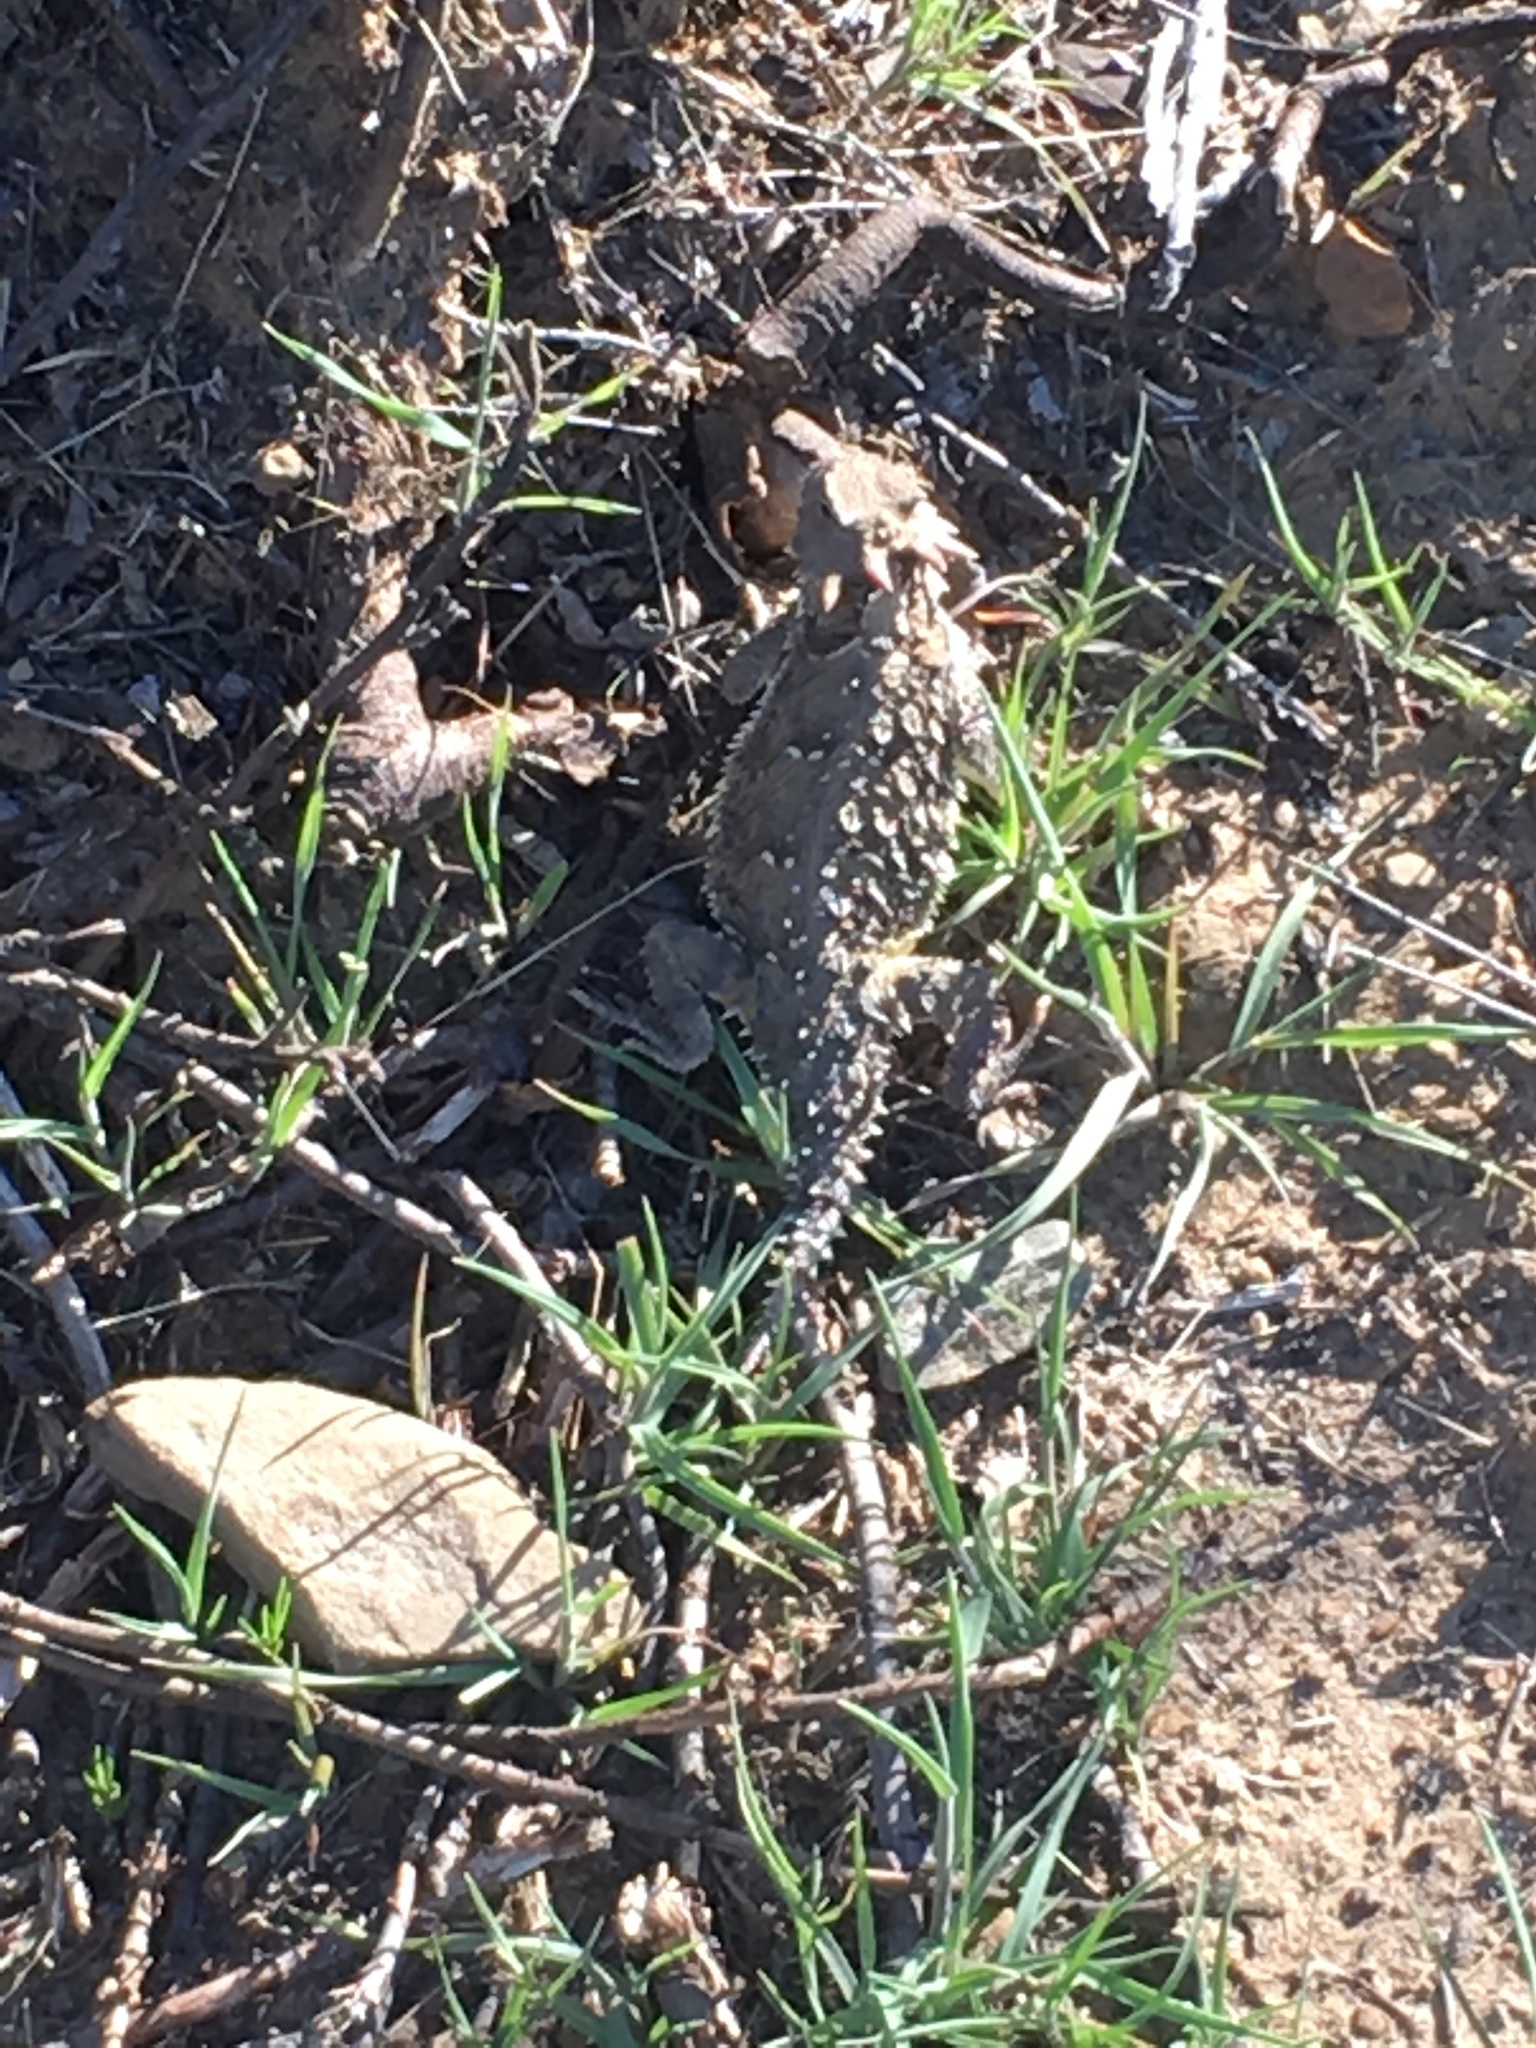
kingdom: Animalia
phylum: Chordata
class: Squamata
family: Phrynosomatidae
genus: Phrynosoma
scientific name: Phrynosoma blainvillii
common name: San diego horned lizard
